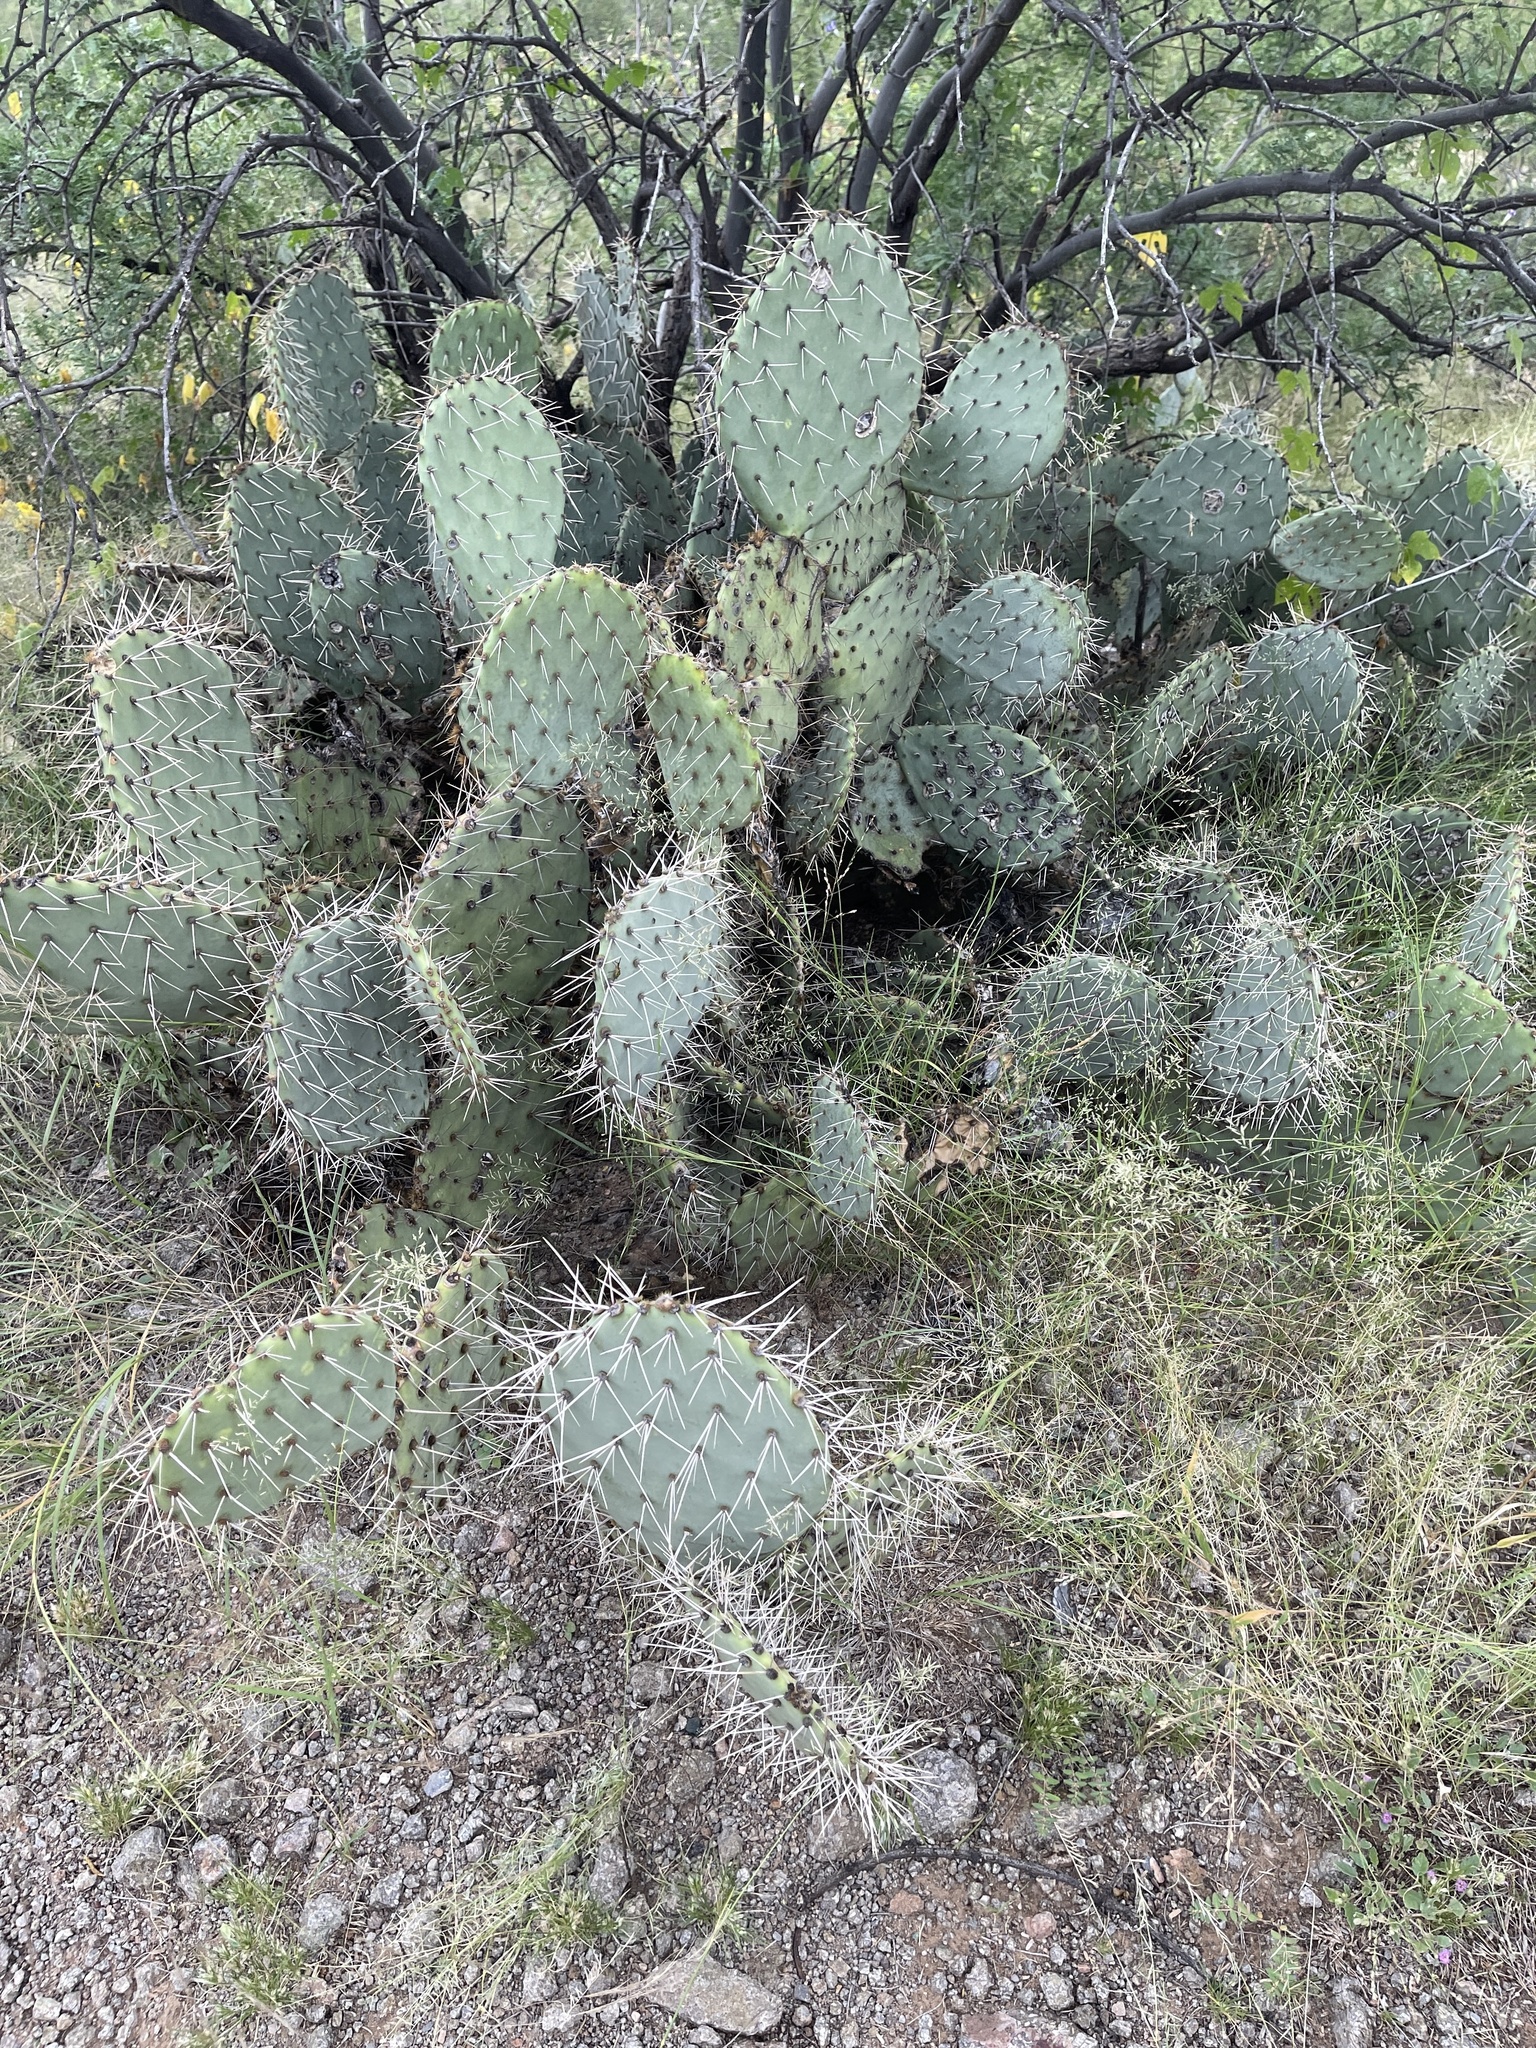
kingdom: Plantae
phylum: Tracheophyta
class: Magnoliopsida
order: Caryophyllales
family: Cactaceae
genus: Opuntia
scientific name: Opuntia phaeacantha
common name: New mexico prickly-pear
